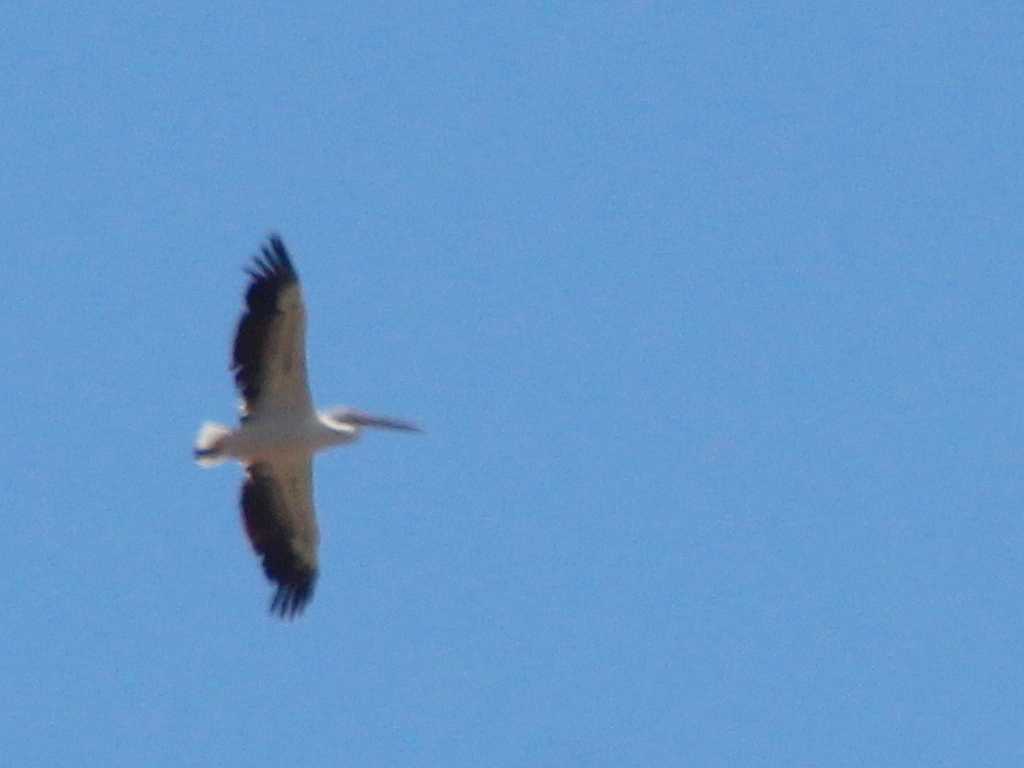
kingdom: Animalia
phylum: Chordata
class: Aves
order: Pelecaniformes
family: Pelecanidae
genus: Pelecanus
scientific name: Pelecanus onocrotalus
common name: Great white pelican
